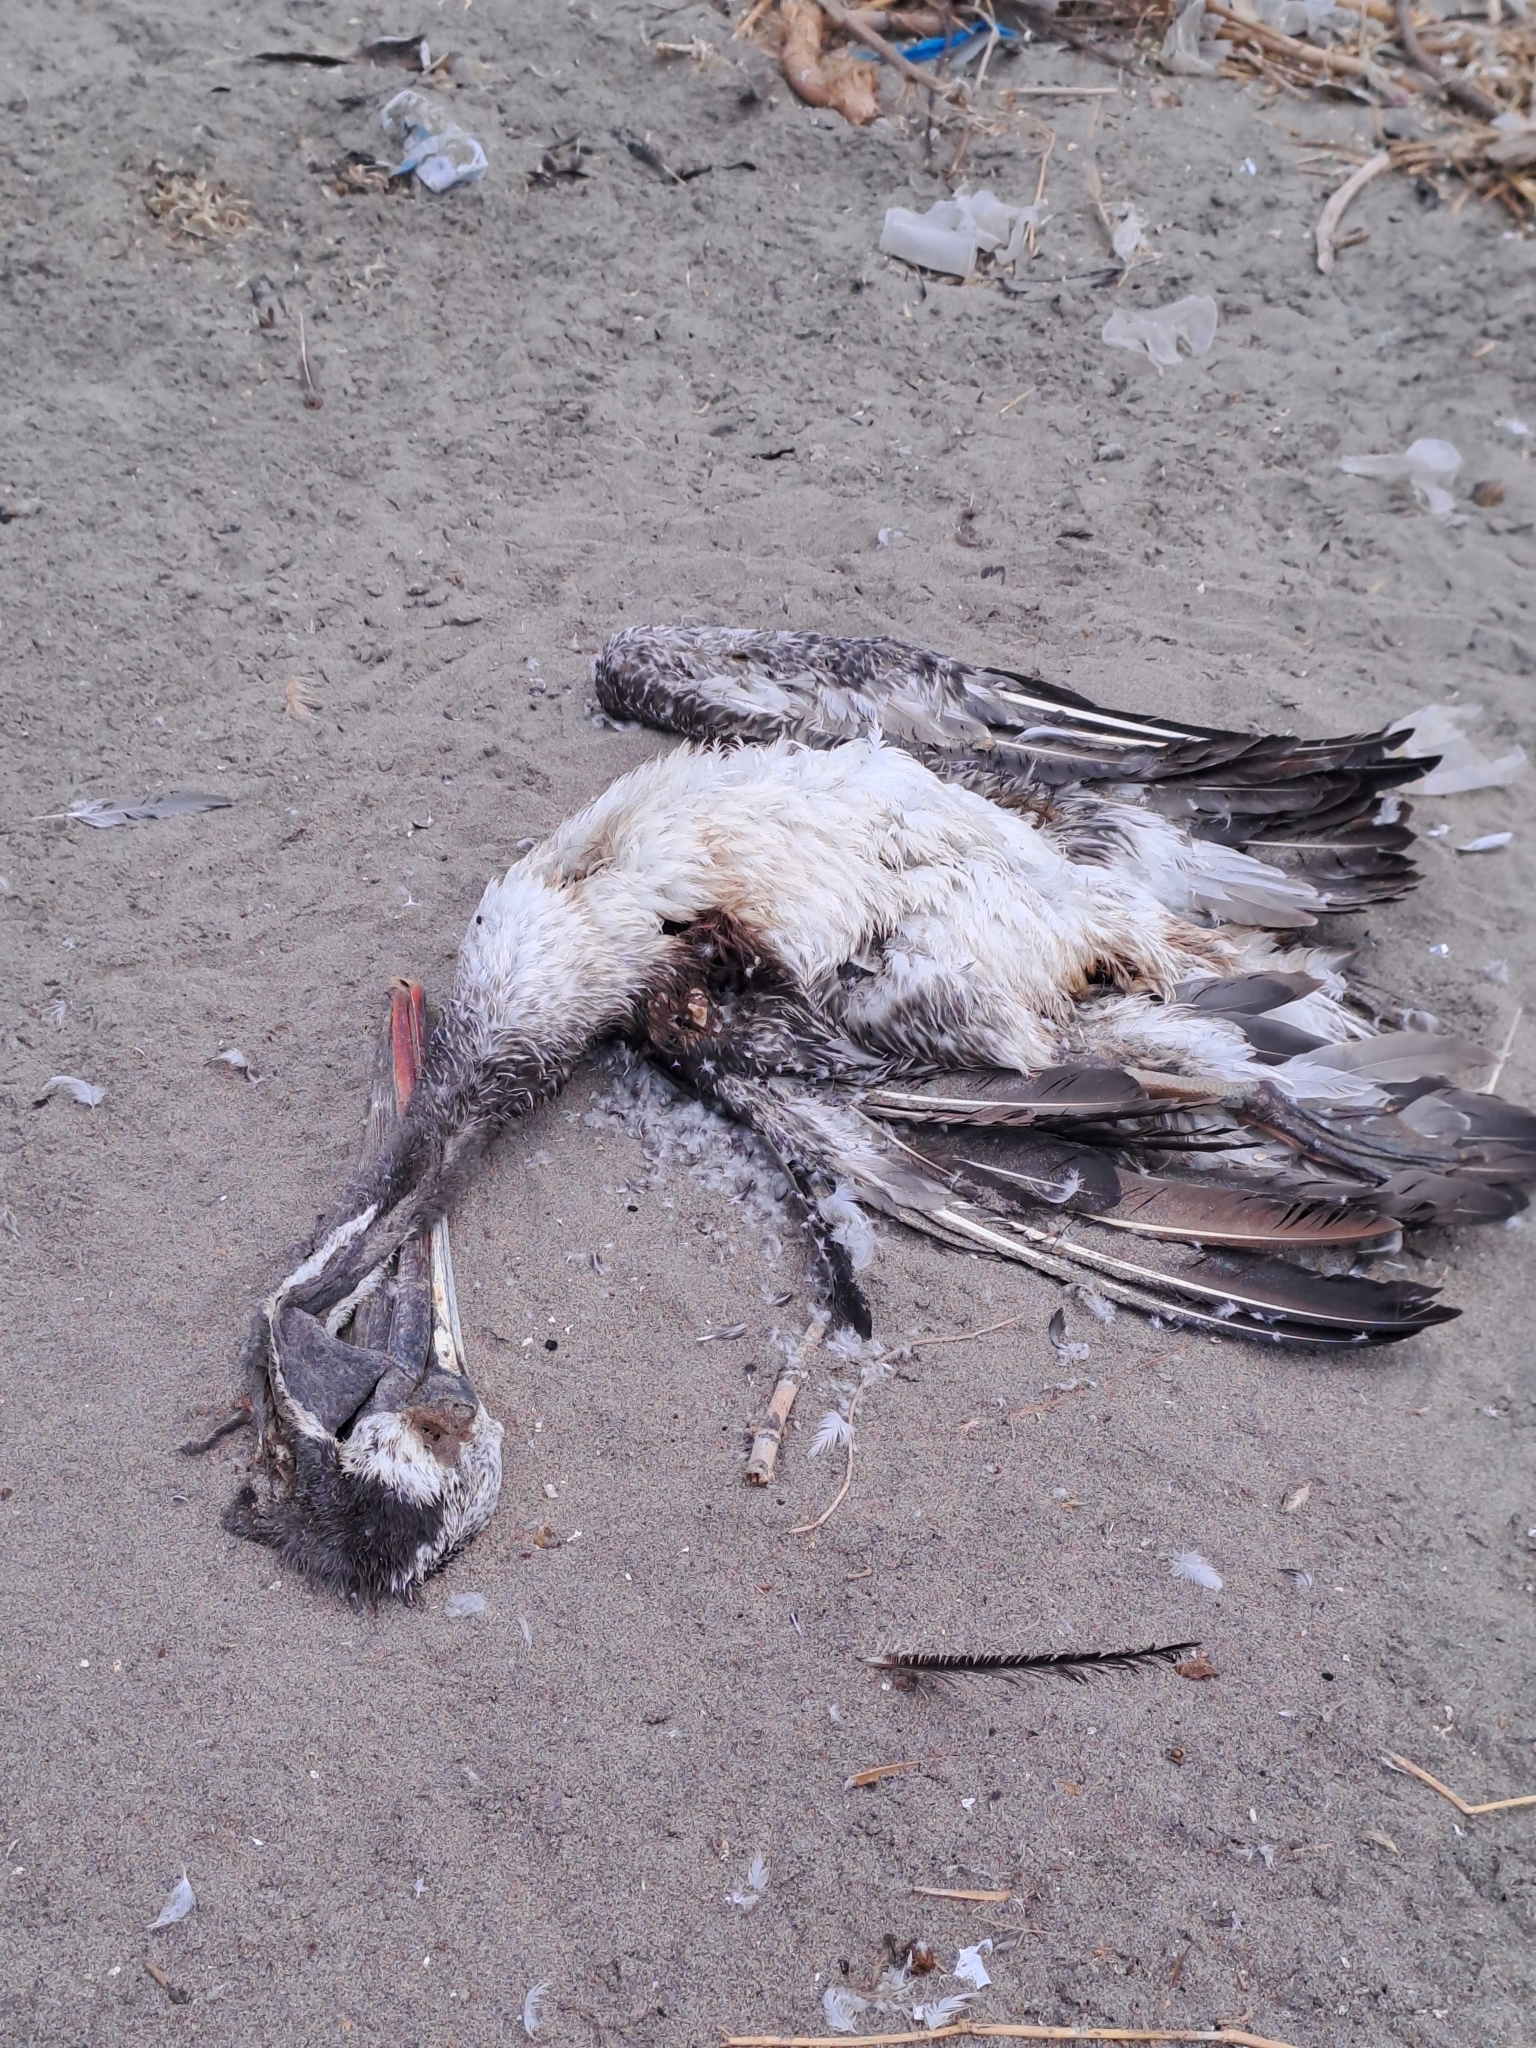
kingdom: Animalia
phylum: Chordata
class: Aves
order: Pelecaniformes
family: Pelecanidae
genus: Pelecanus
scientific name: Pelecanus thagus
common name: Peruvian pelican
